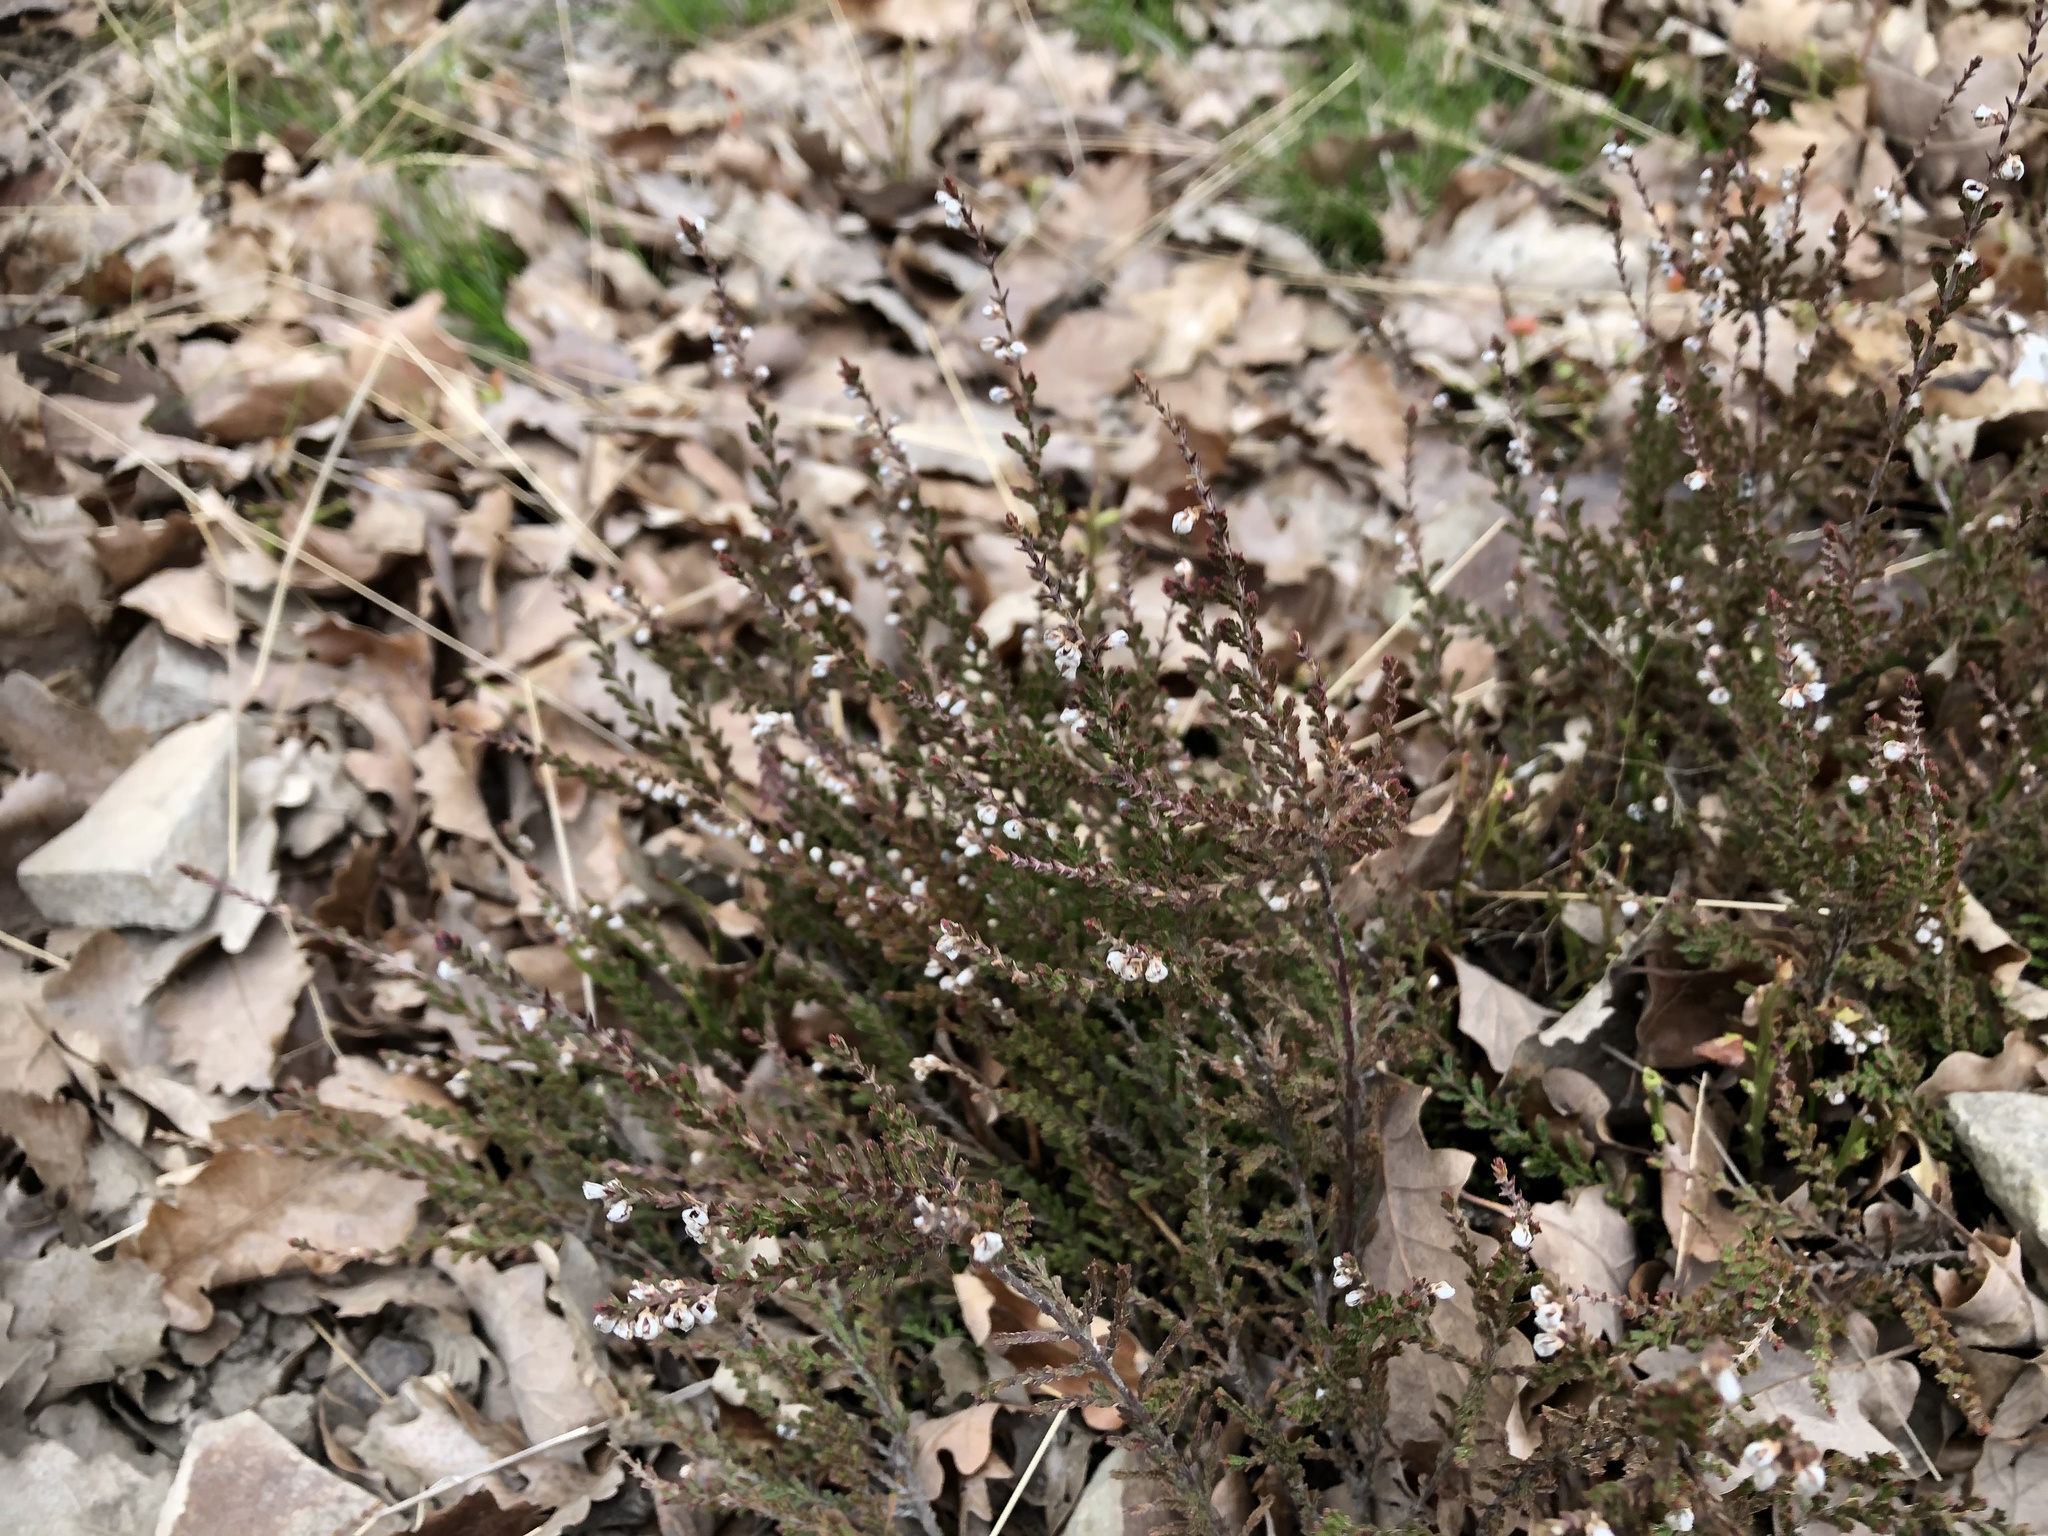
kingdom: Plantae
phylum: Tracheophyta
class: Magnoliopsida
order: Ericales
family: Ericaceae
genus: Calluna
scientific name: Calluna vulgaris
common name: Heather
